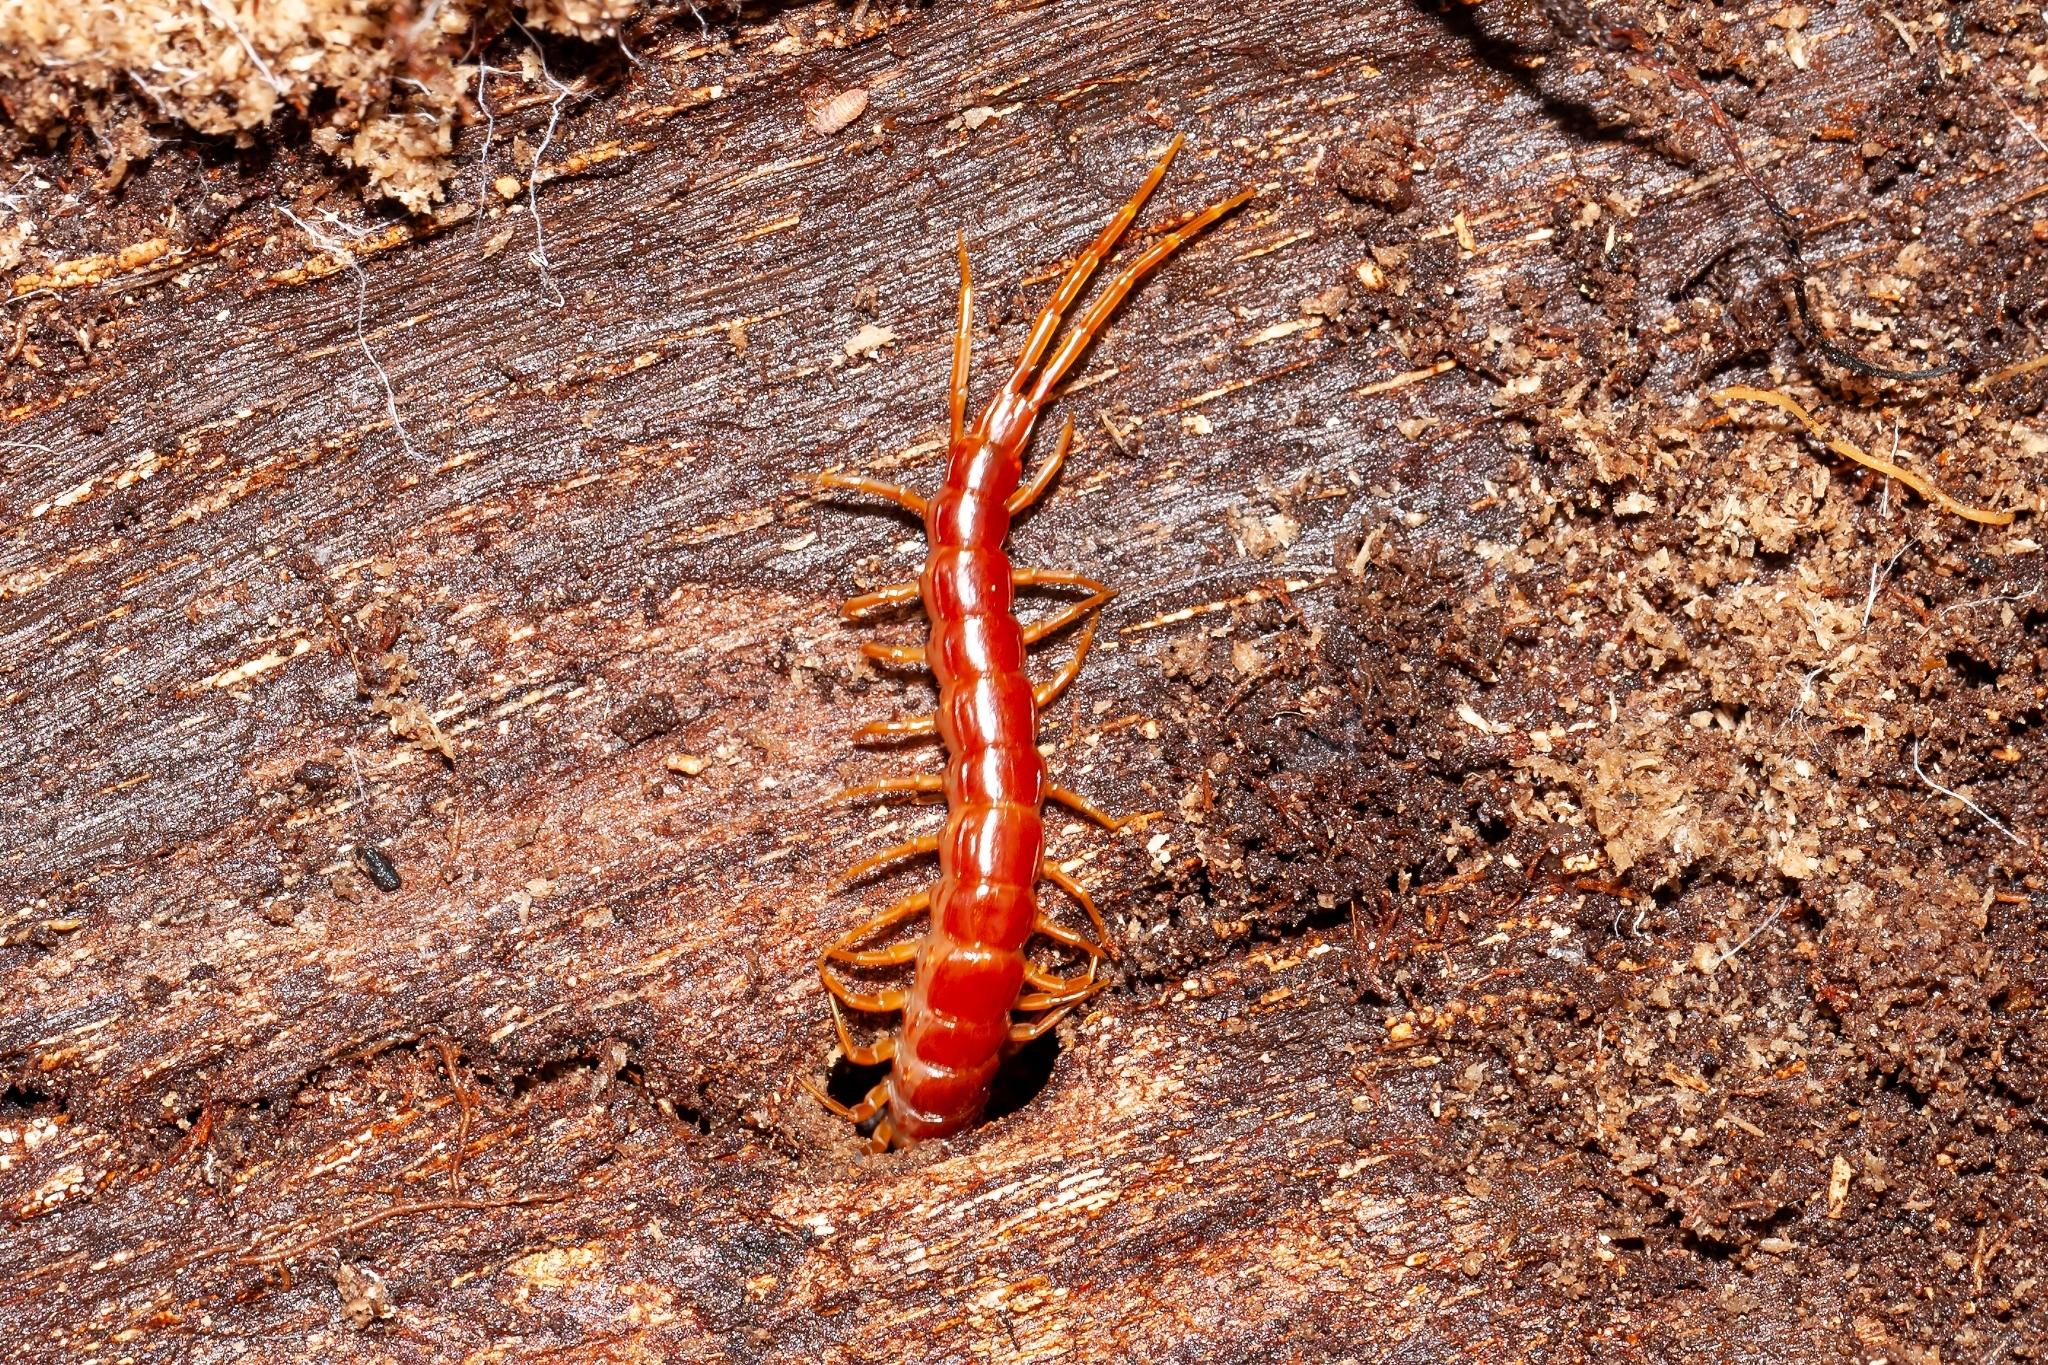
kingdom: Animalia
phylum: Arthropoda
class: Chilopoda
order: Scolopendromorpha
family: Scolopocryptopidae
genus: Scolopocryptops
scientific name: Scolopocryptops sexspinosus
